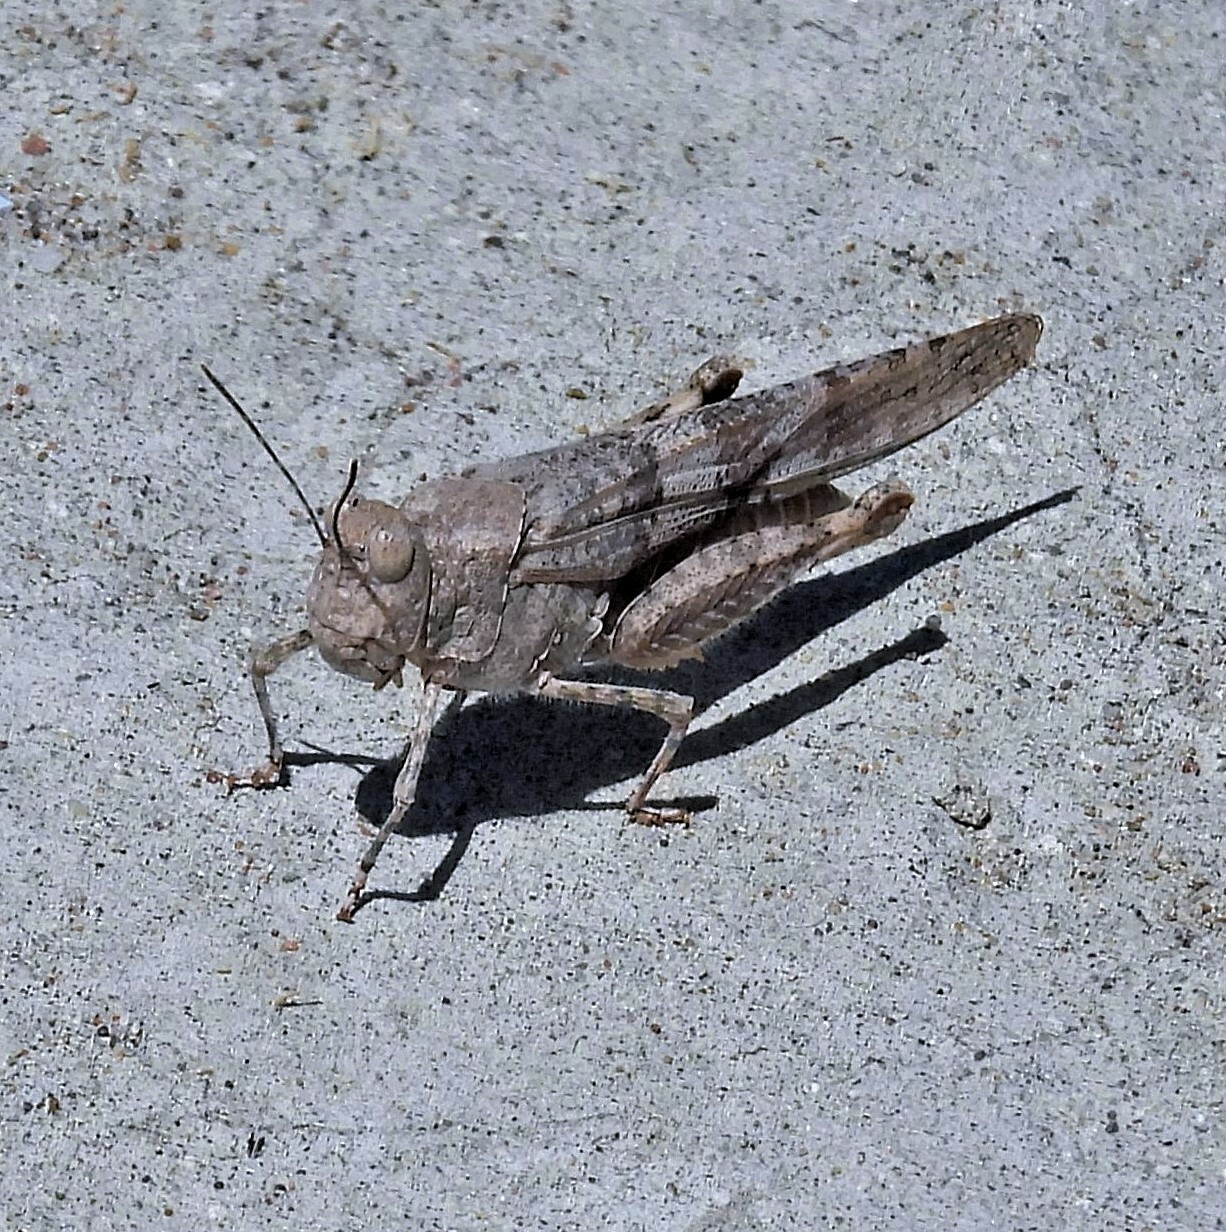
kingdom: Animalia
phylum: Arthropoda
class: Insecta
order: Orthoptera
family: Acrididae
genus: Trimerotropis
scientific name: Trimerotropis pallidipennis
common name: Pallid-winged grasshopper
